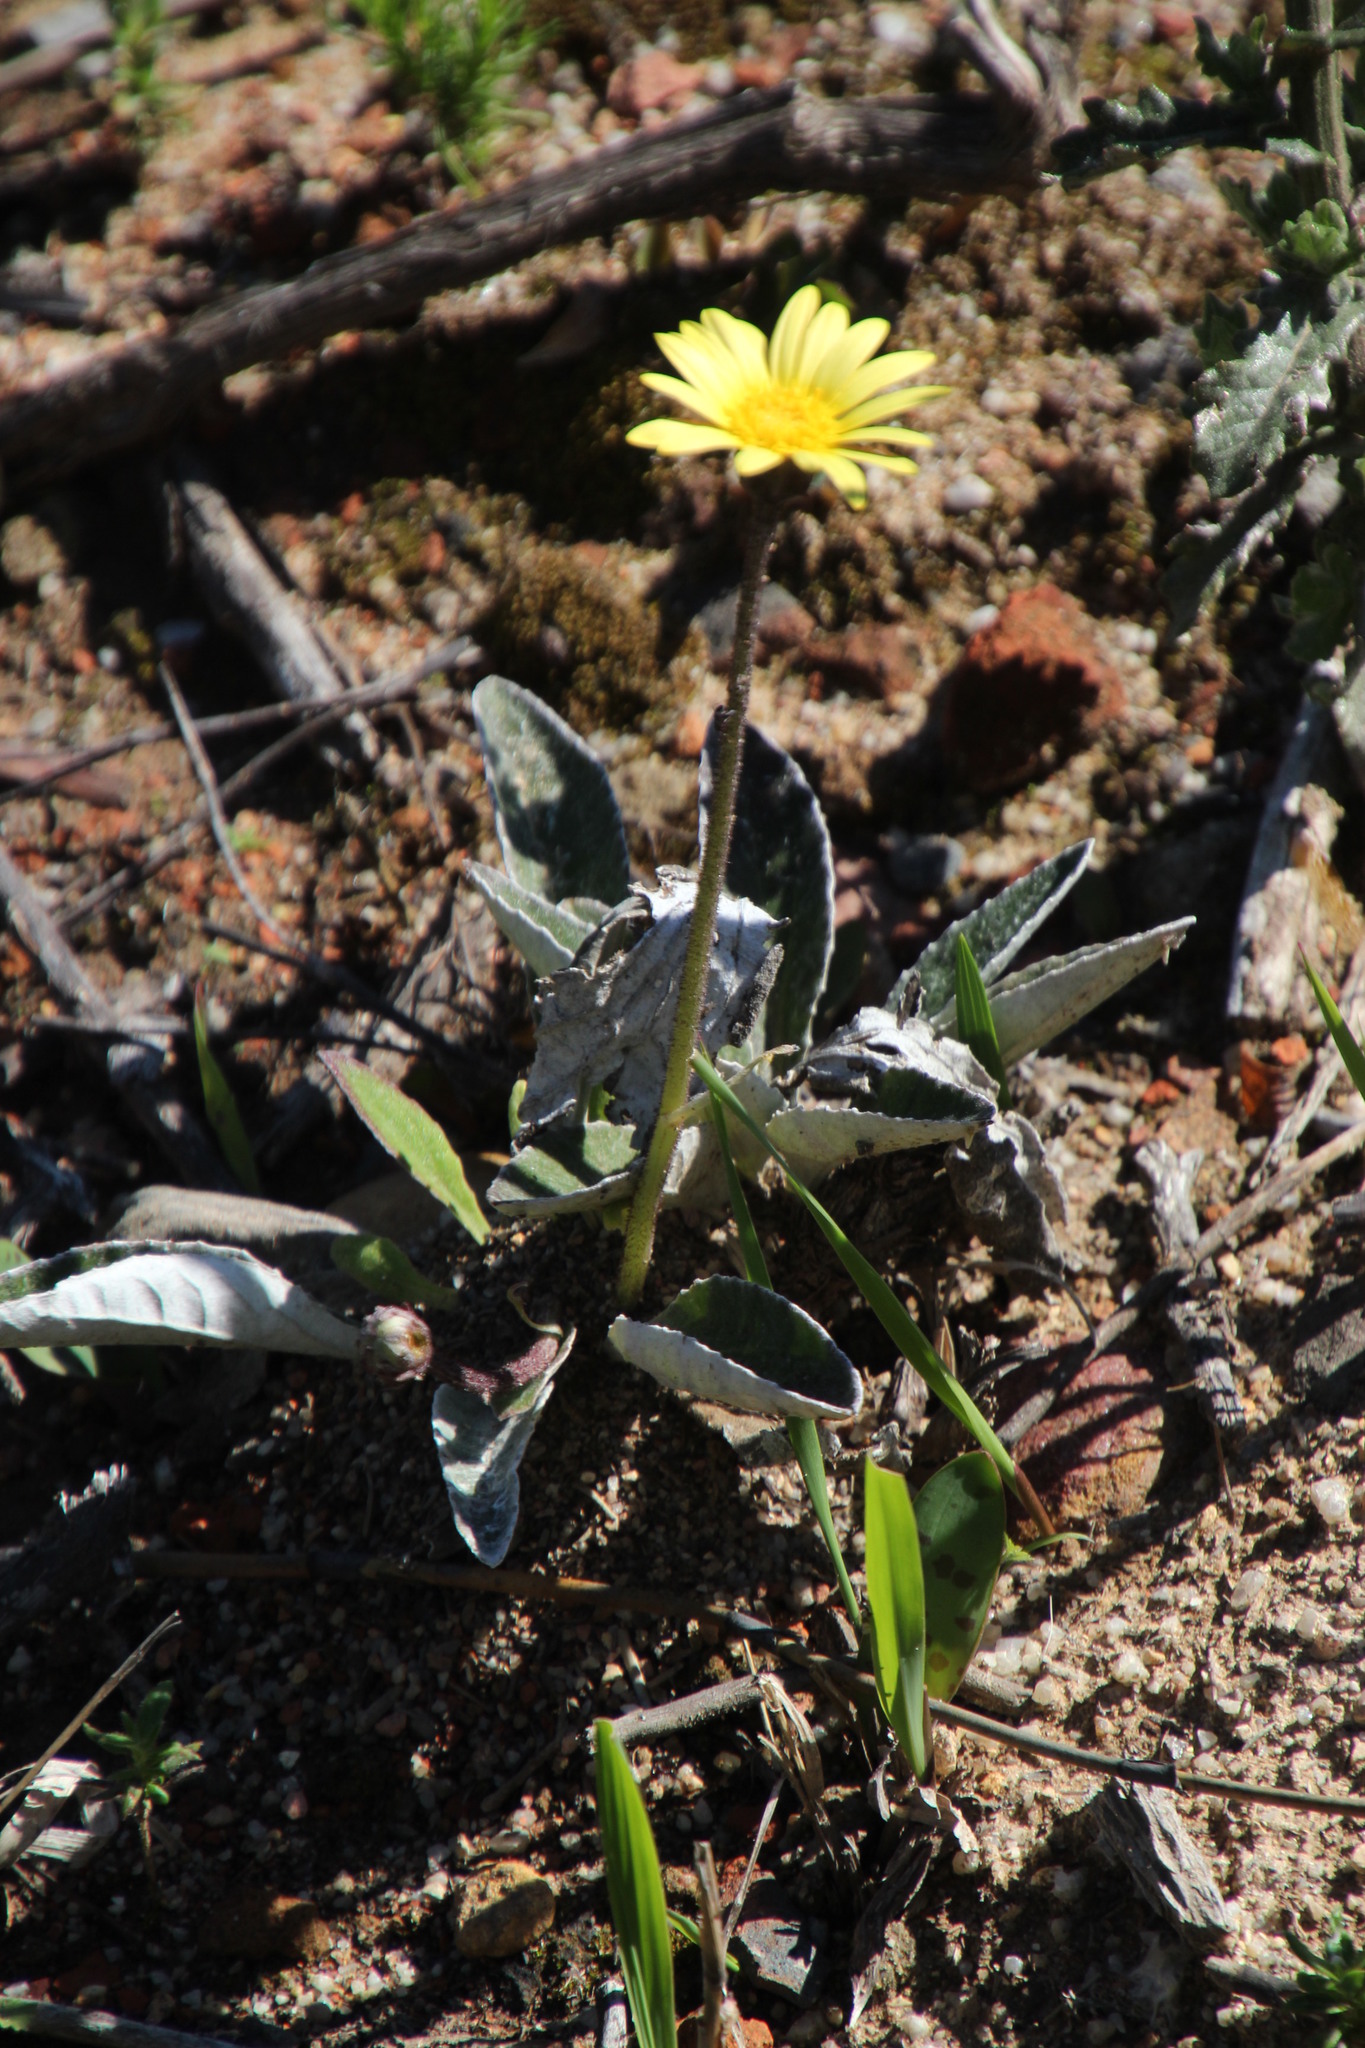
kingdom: Plantae
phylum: Tracheophyta
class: Magnoliopsida
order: Asterales
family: Asteraceae
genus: Haplocarpha
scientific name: Haplocarpha lanata
